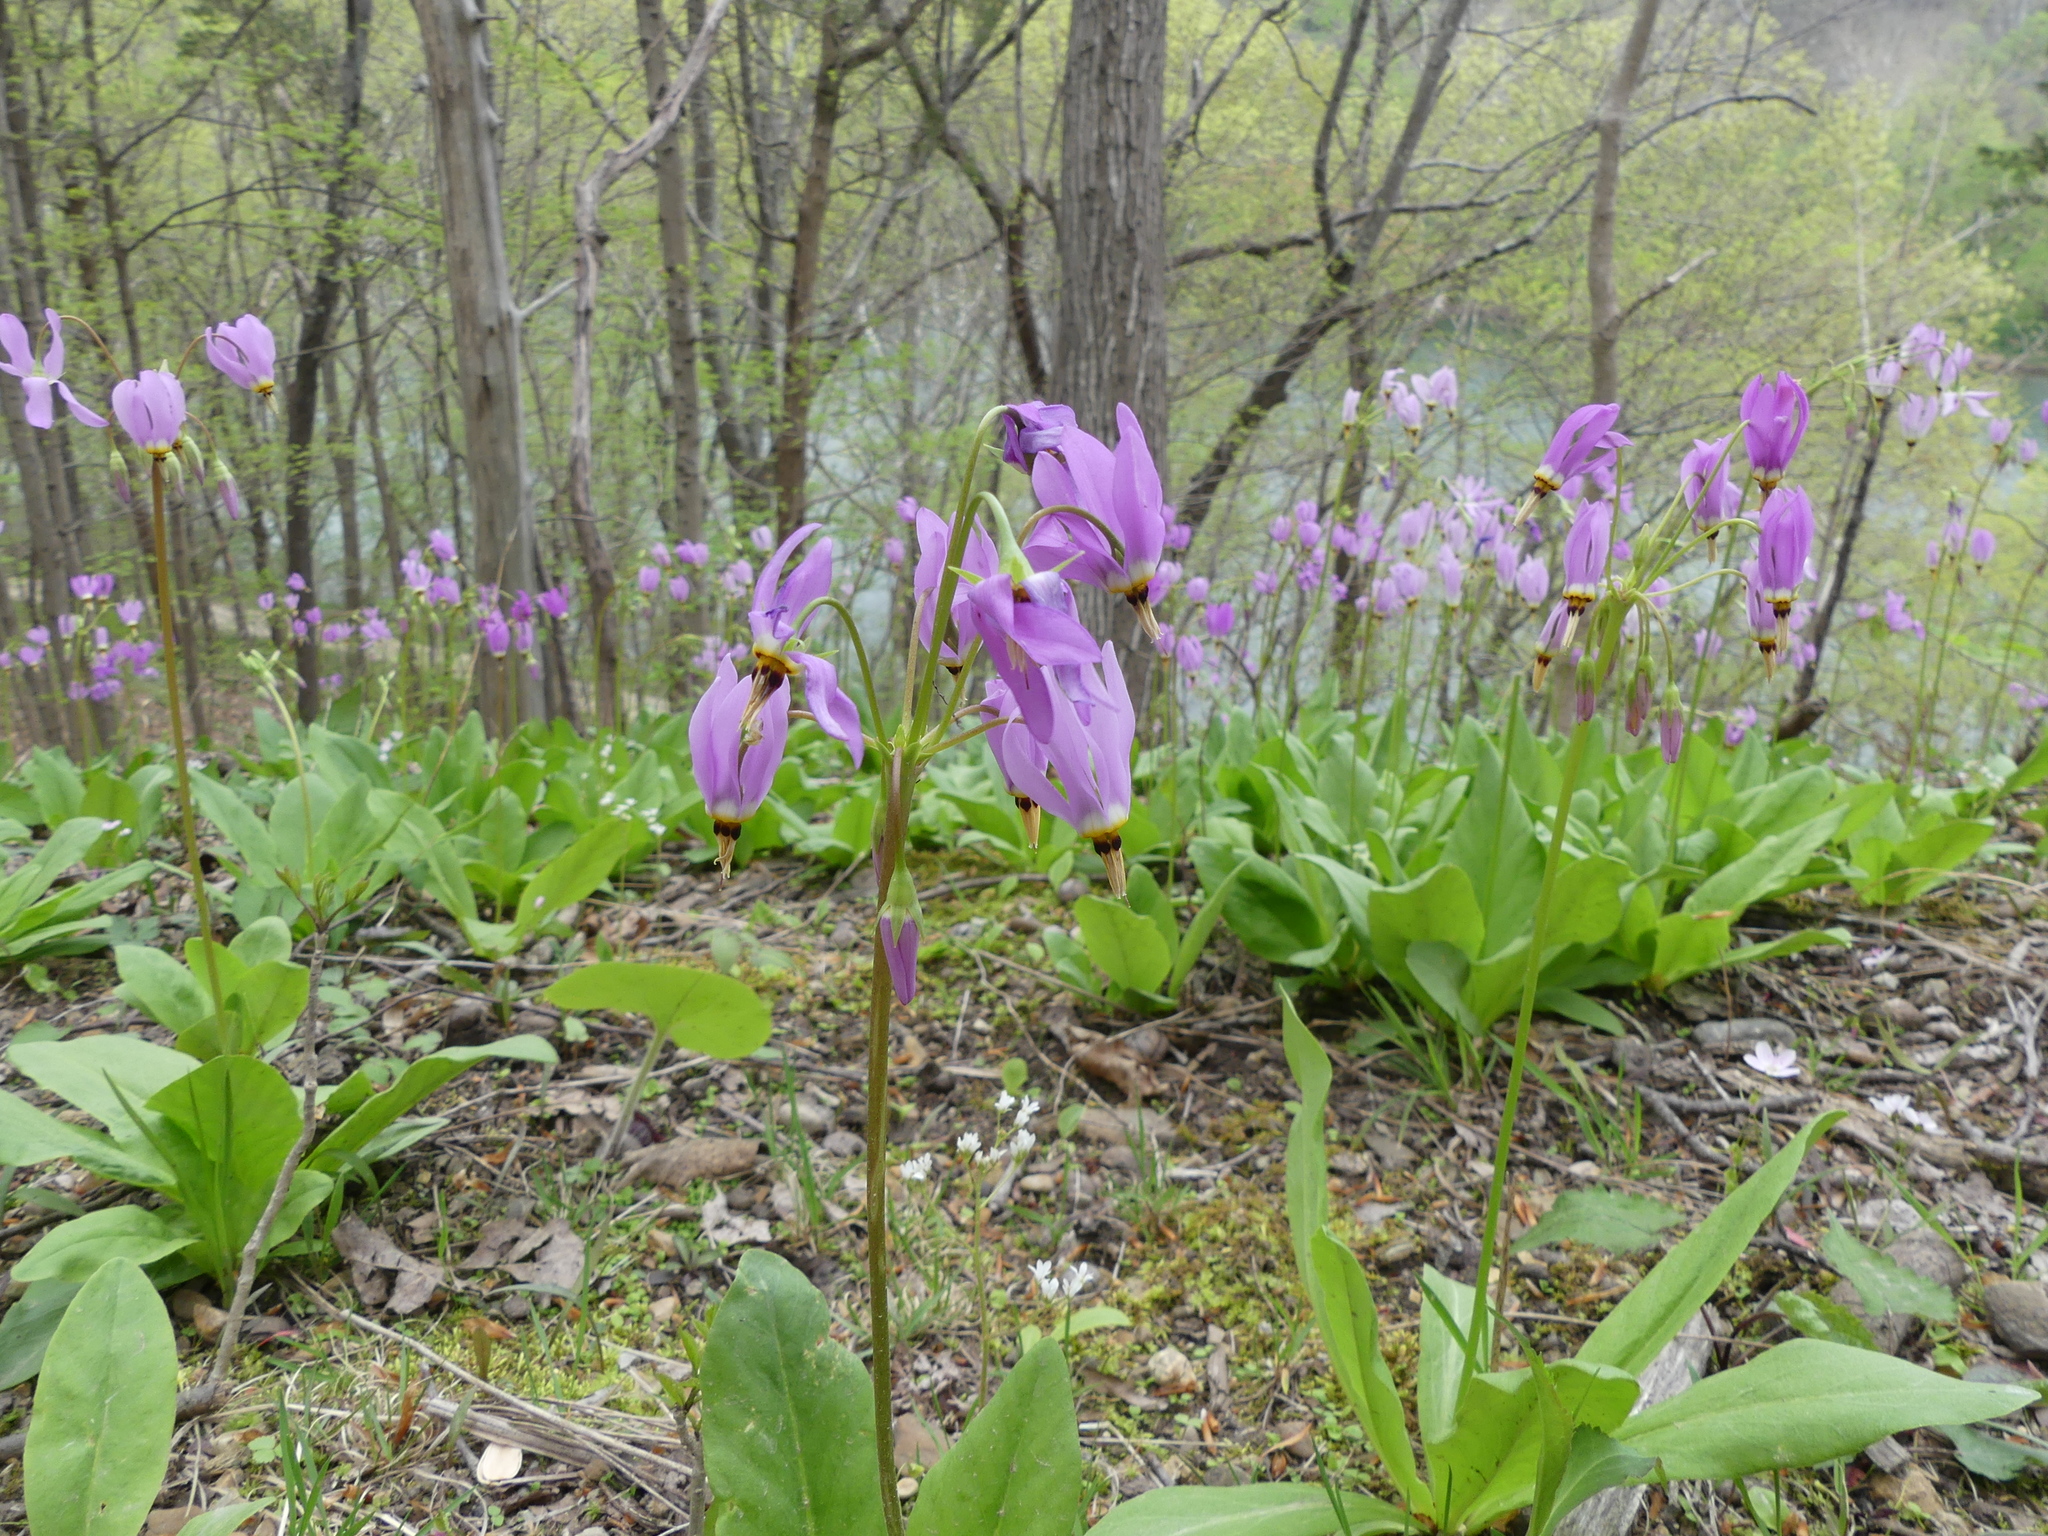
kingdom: Plantae
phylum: Tracheophyta
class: Magnoliopsida
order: Ericales
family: Primulaceae
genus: Dodecatheon
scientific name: Dodecatheon meadia
